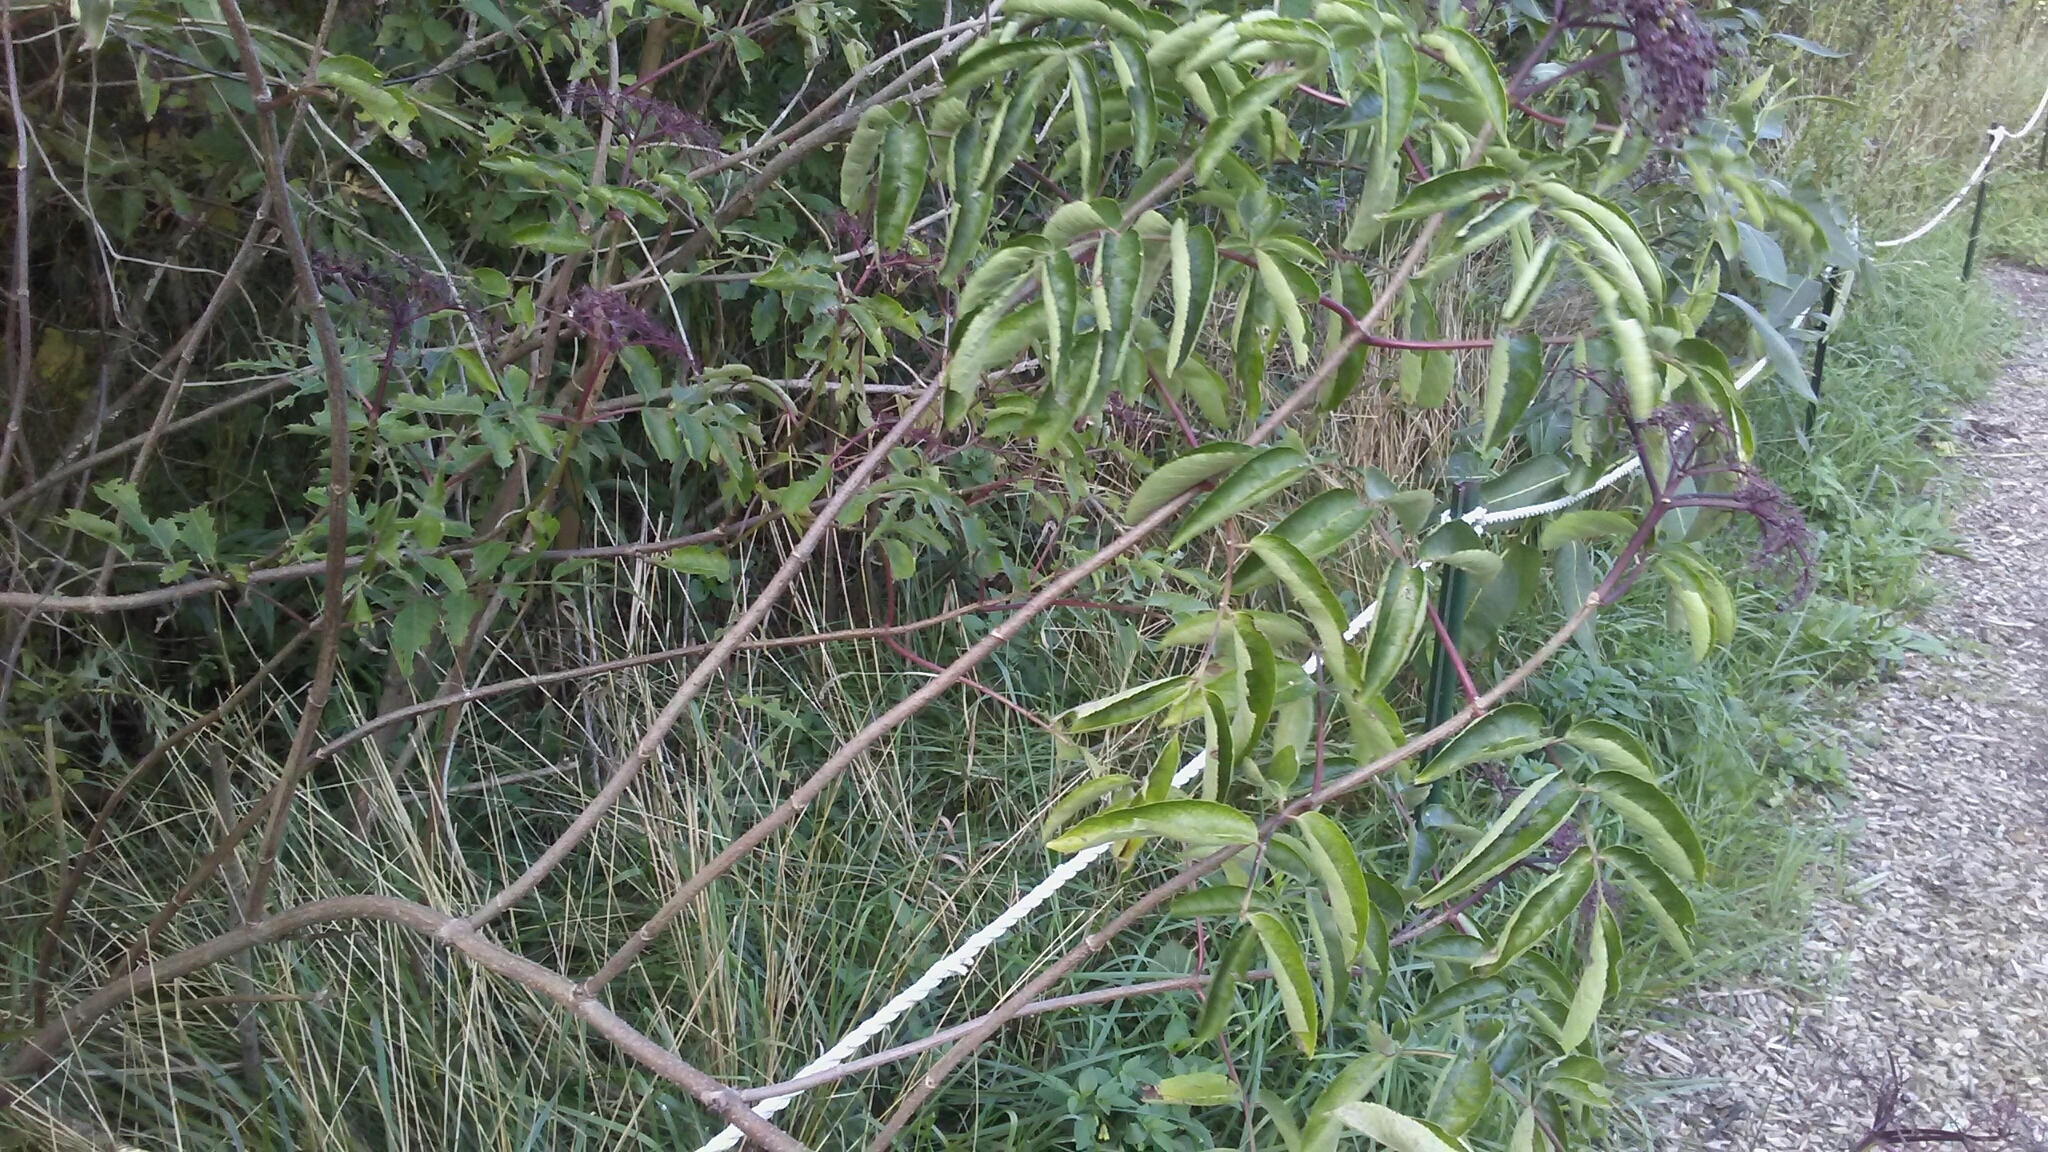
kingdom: Plantae
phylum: Tracheophyta
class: Magnoliopsida
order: Dipsacales
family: Viburnaceae
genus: Sambucus
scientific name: Sambucus canadensis
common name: American elder
